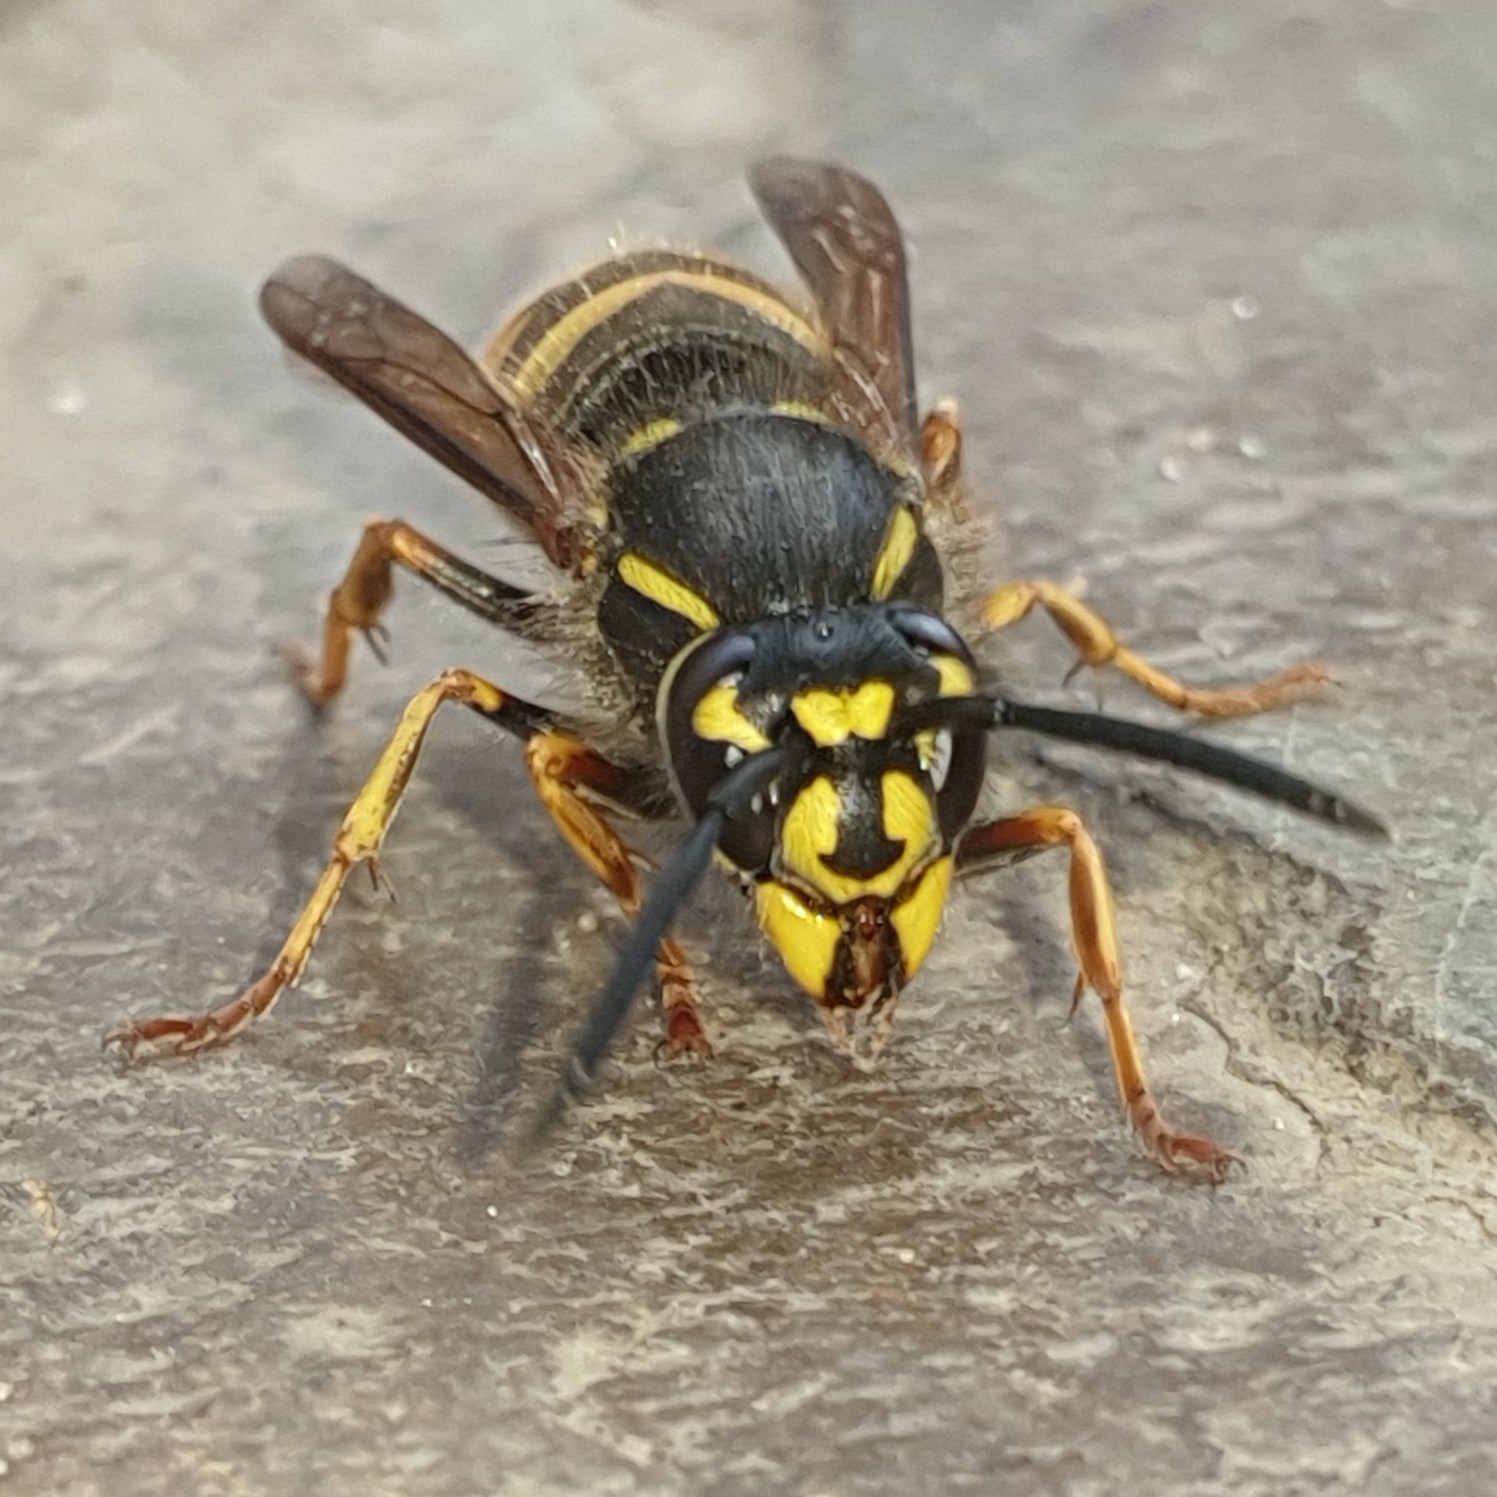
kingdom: Animalia
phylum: Arthropoda
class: Insecta
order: Hymenoptera
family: Vespidae
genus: Vespula
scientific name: Vespula vulgaris
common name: Common wasp
